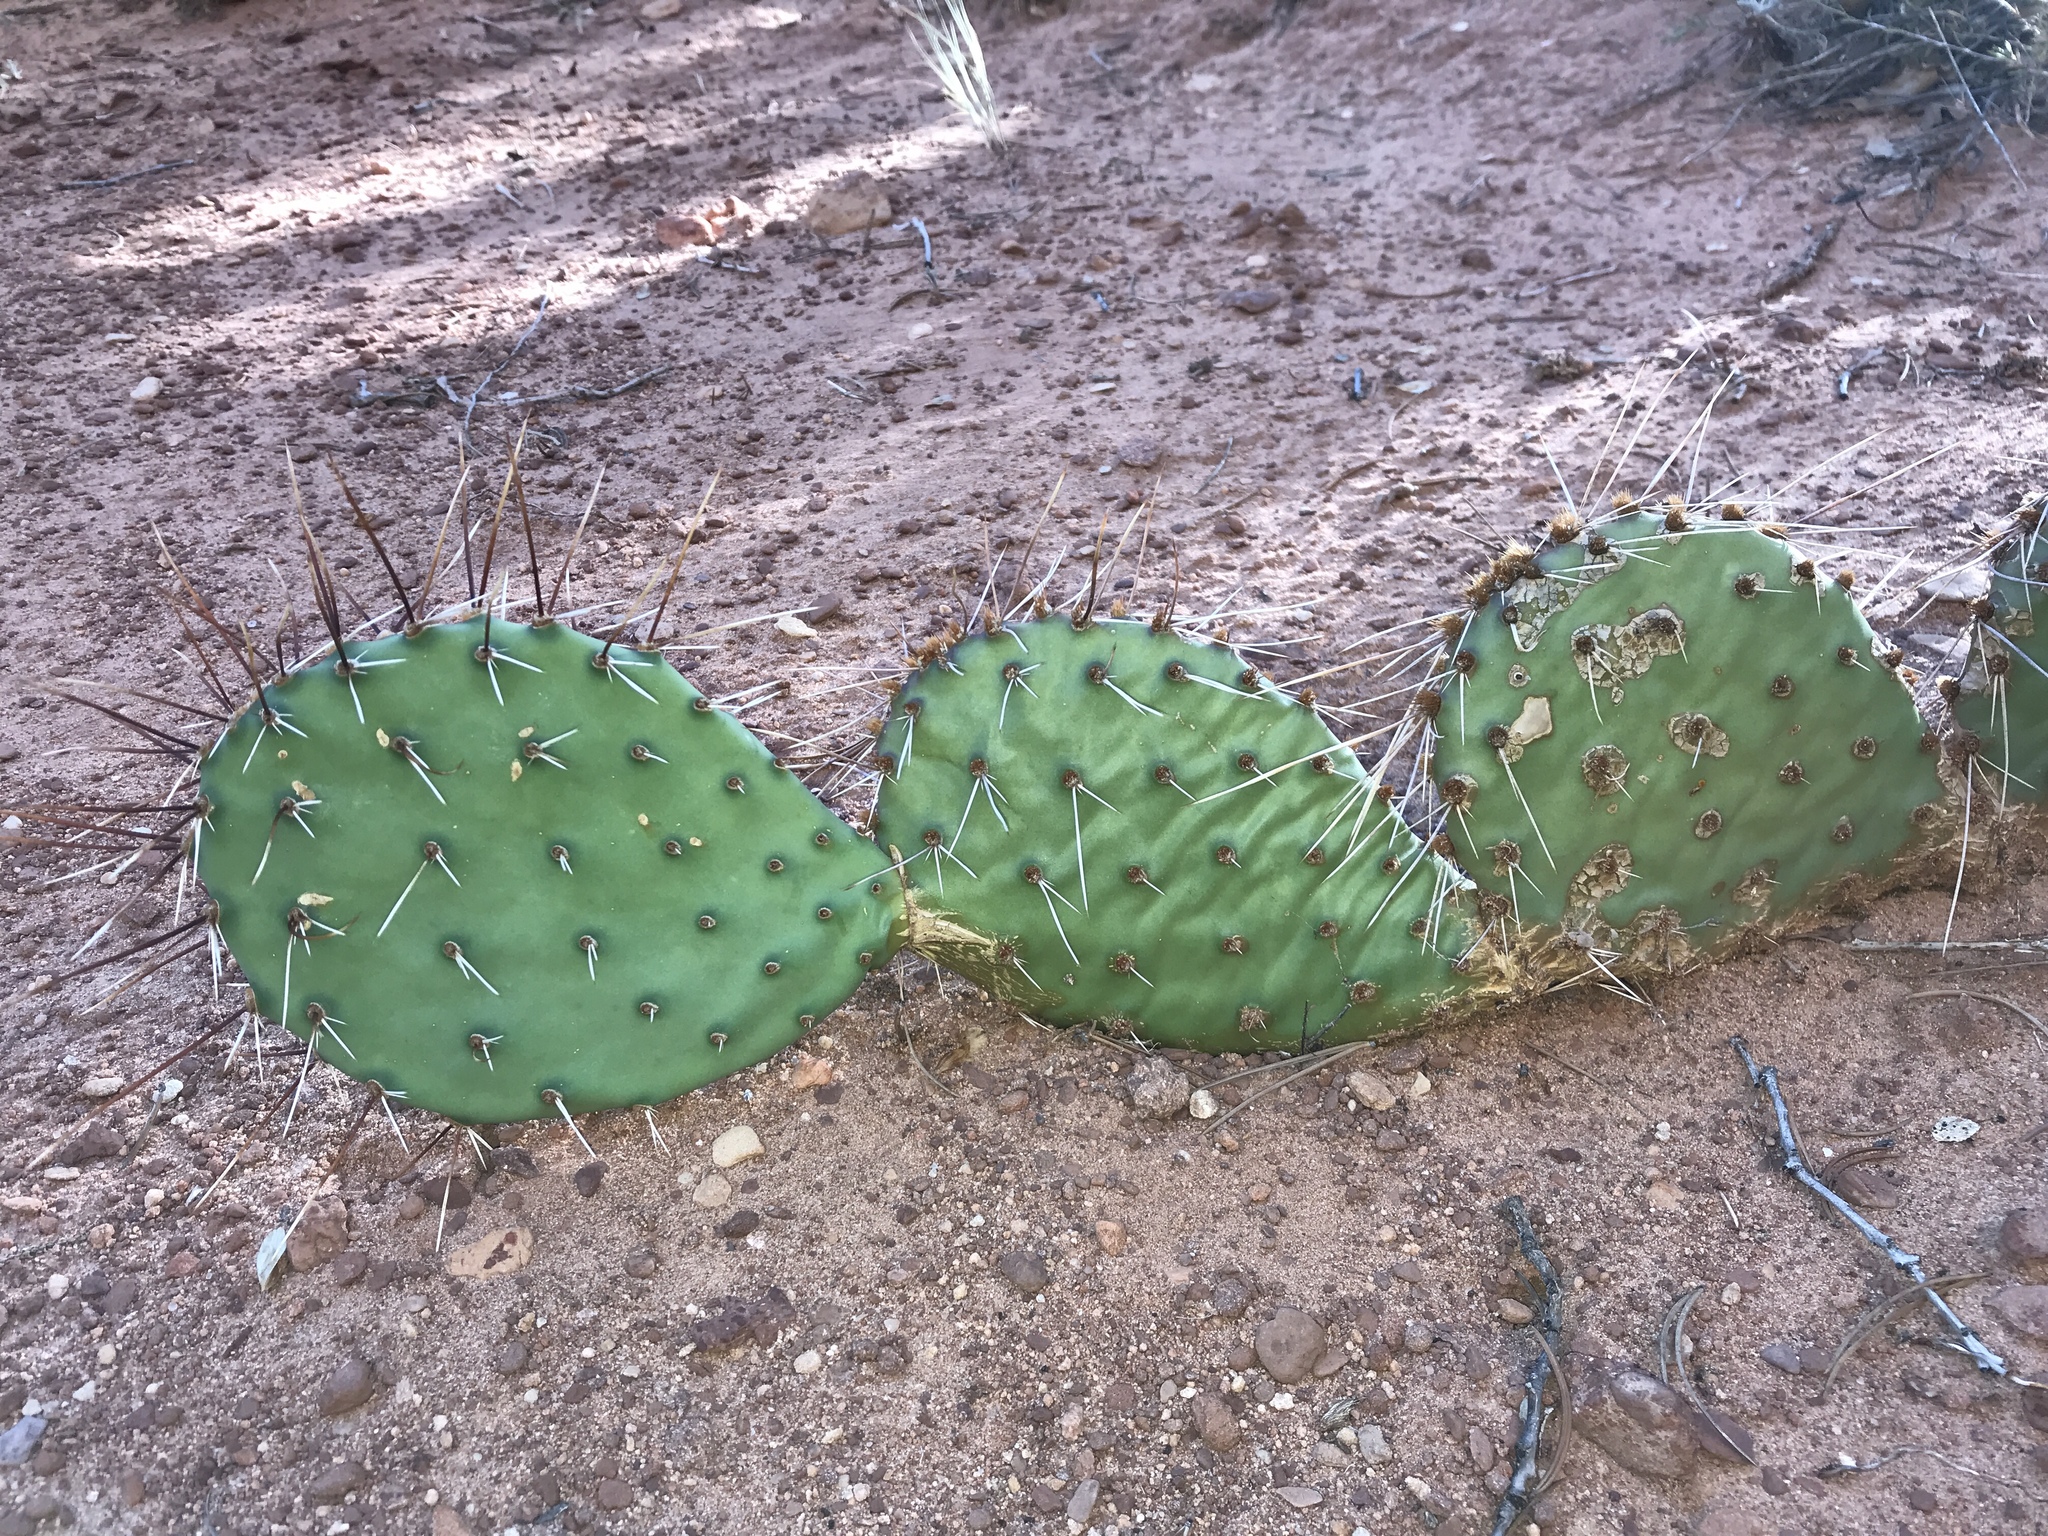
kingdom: Plantae
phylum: Tracheophyta
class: Magnoliopsida
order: Caryophyllales
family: Cactaceae
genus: Opuntia
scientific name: Opuntia phaeacantha
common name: New mexico prickly-pear
